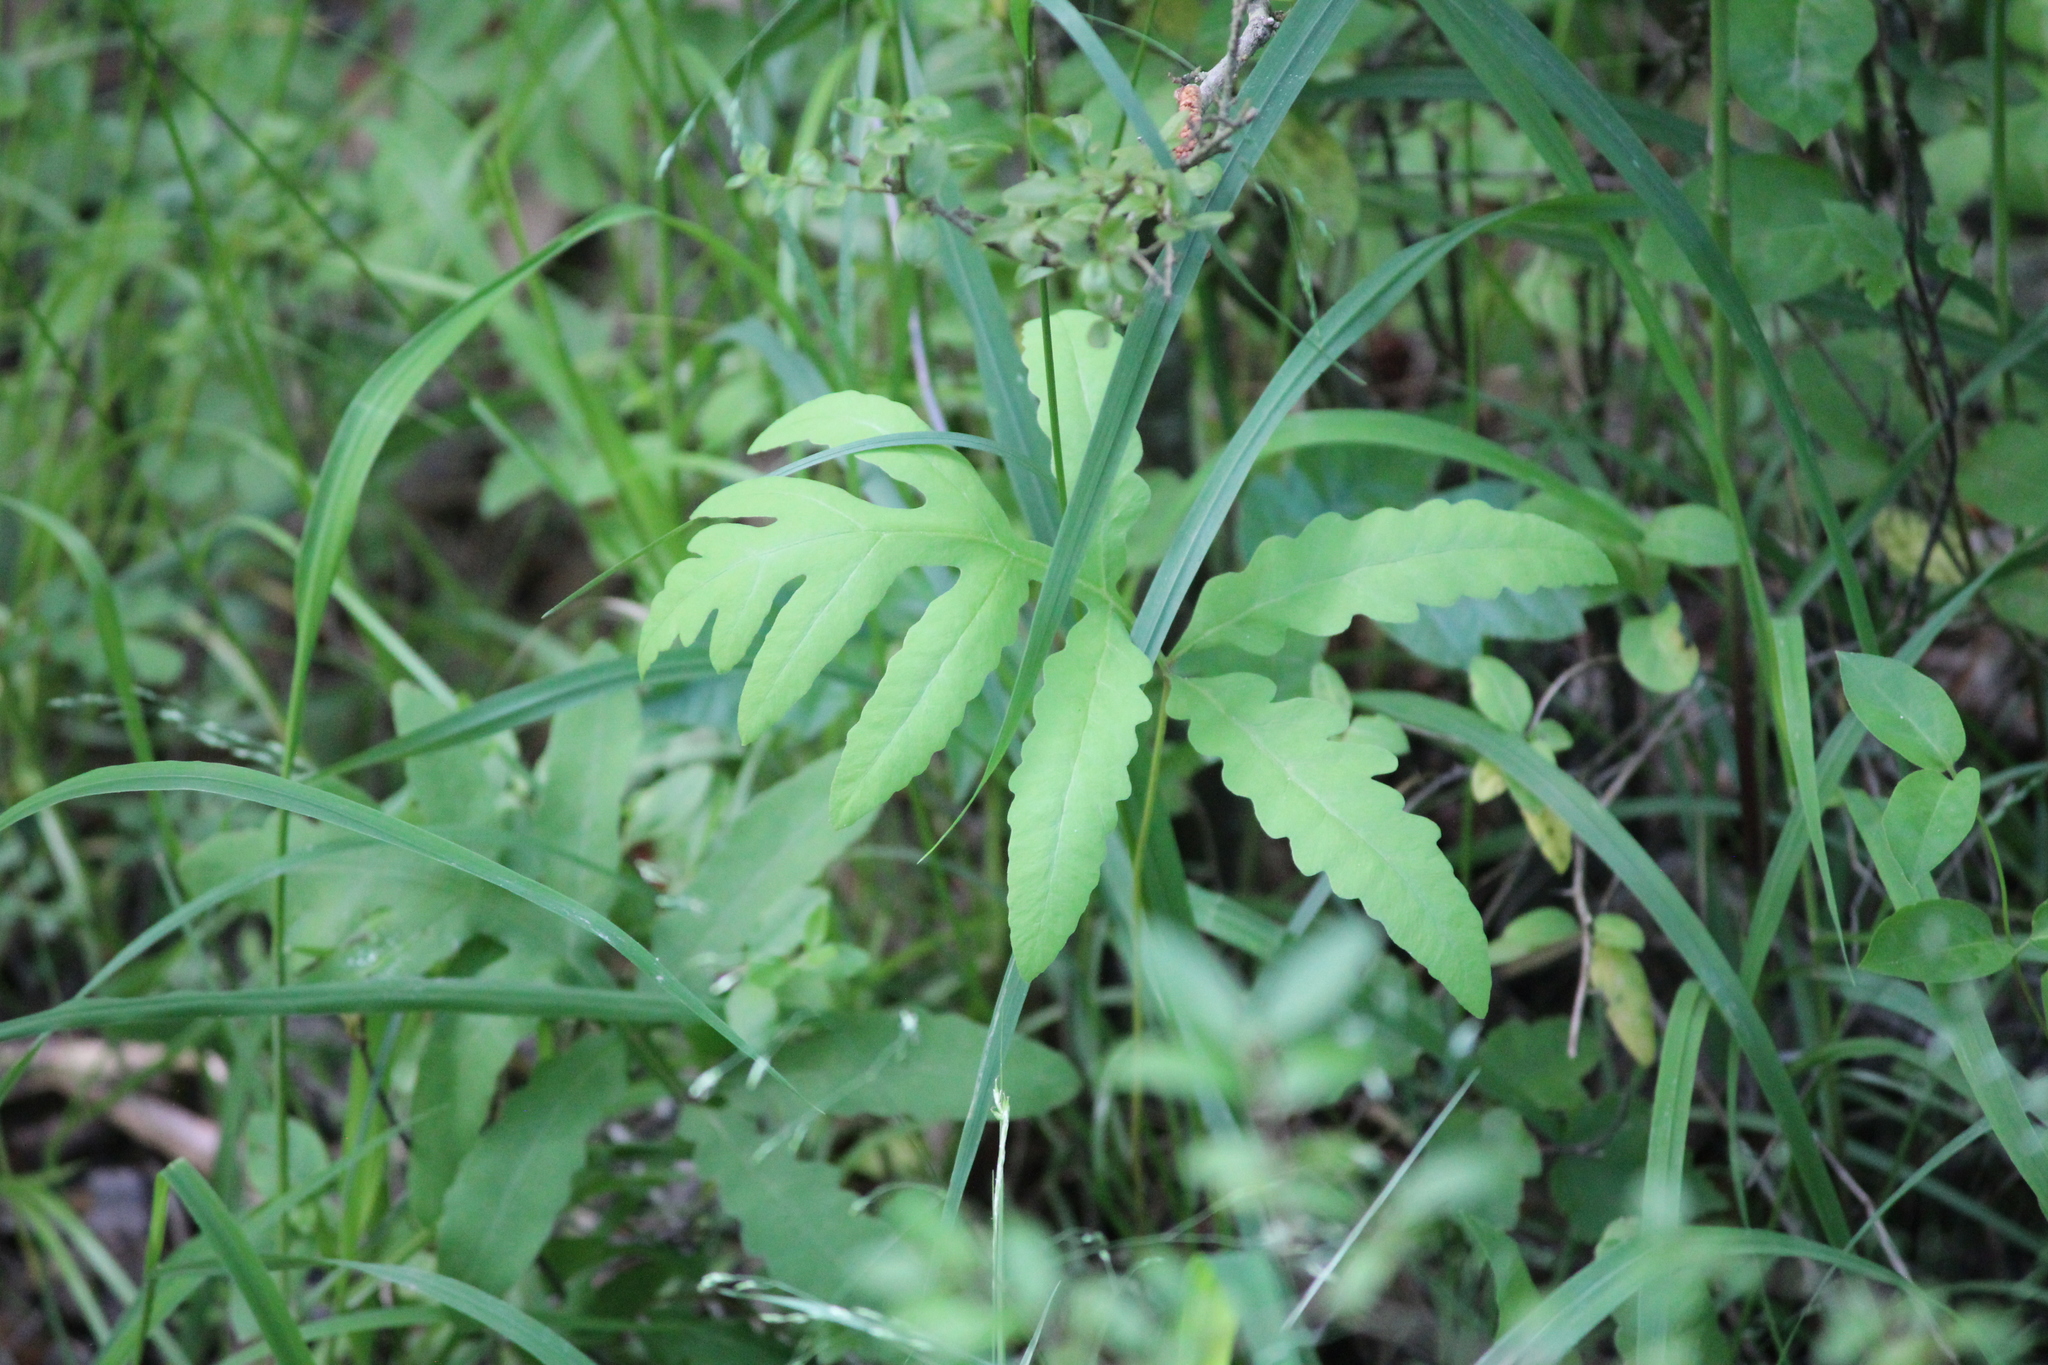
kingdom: Plantae
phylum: Tracheophyta
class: Polypodiopsida
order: Polypodiales
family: Onocleaceae
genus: Onoclea
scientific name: Onoclea sensibilis
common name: Sensitive fern
